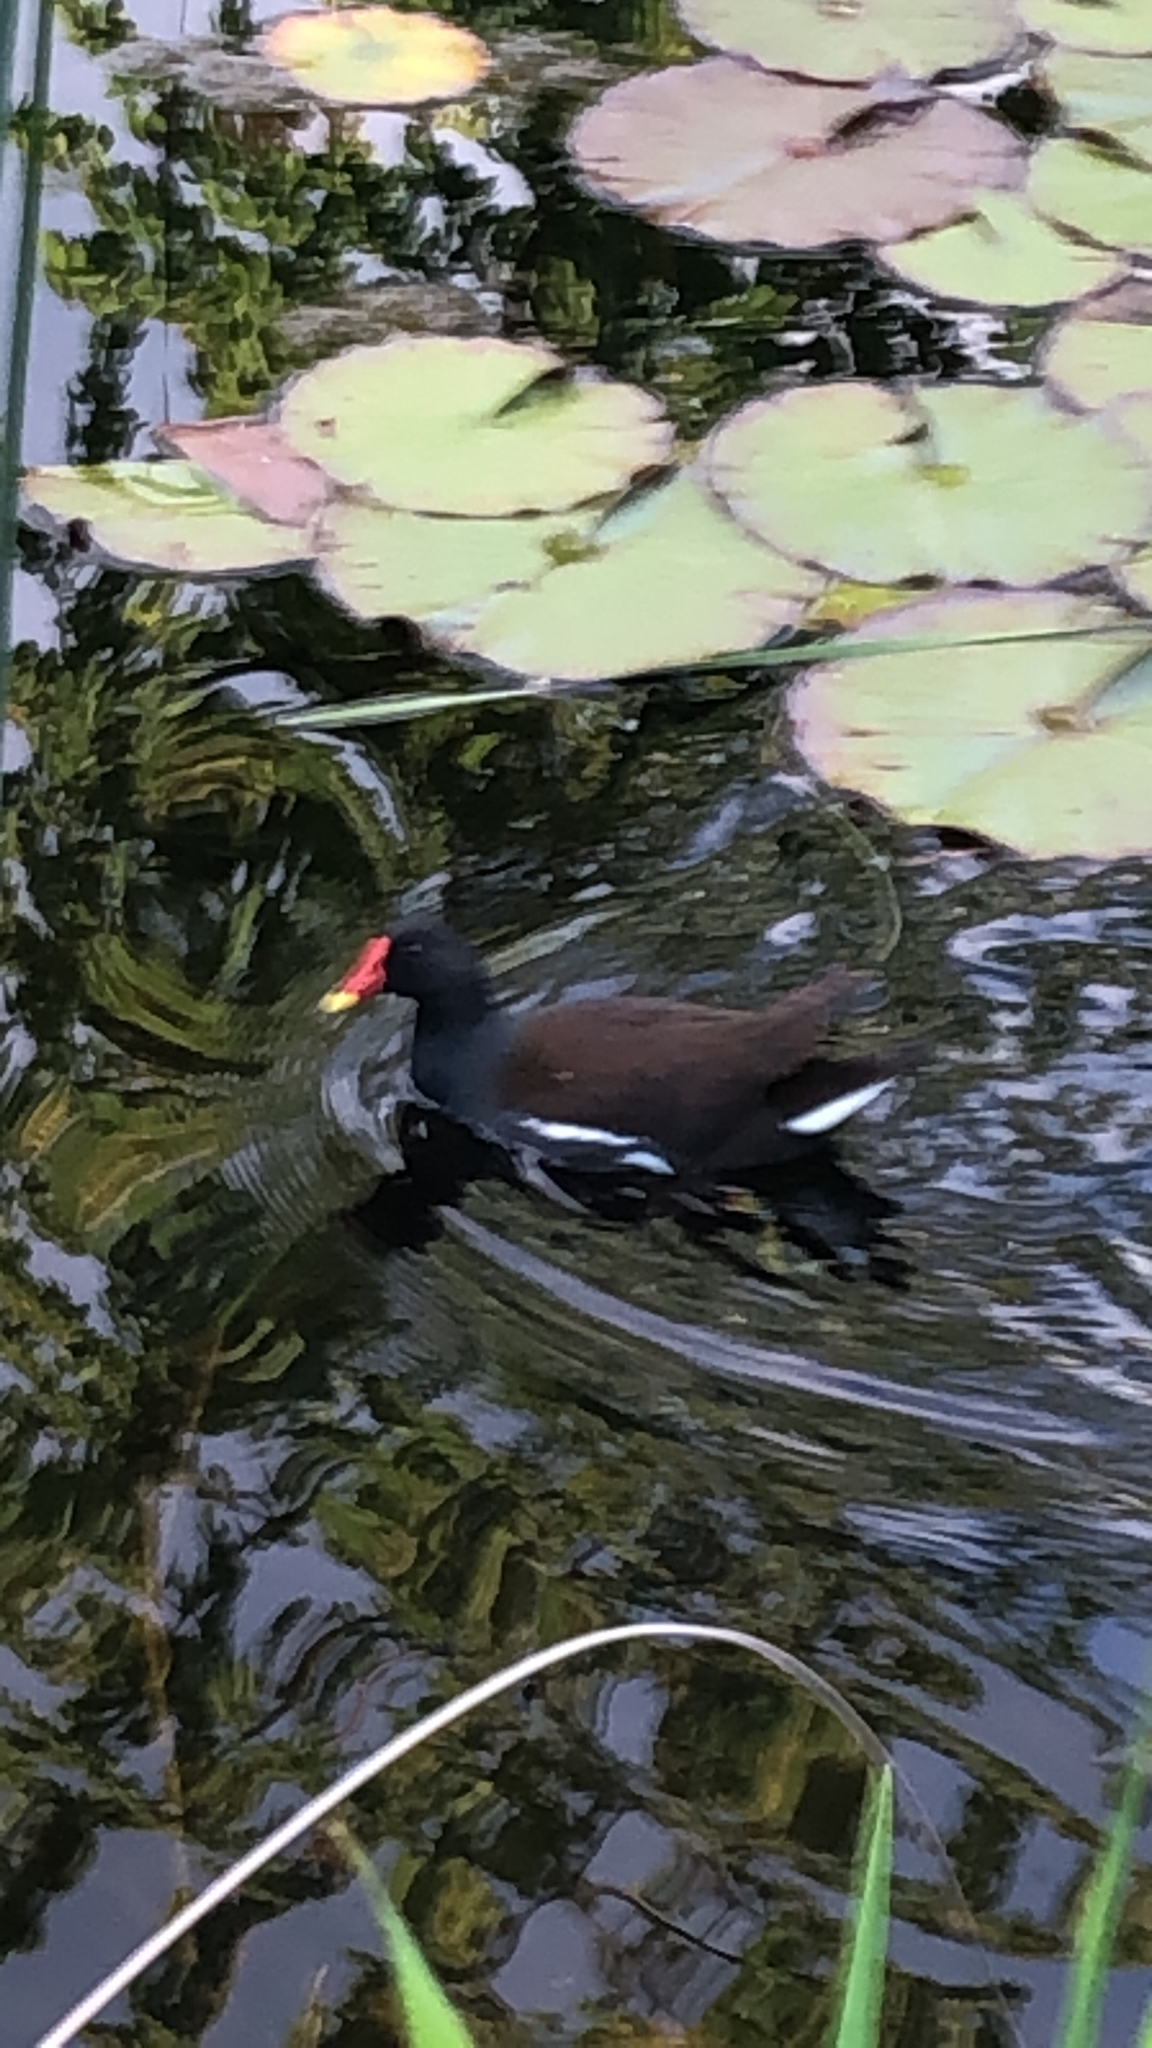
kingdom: Animalia
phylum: Chordata
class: Aves
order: Gruiformes
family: Rallidae
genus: Gallinula
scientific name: Gallinula chloropus
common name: Common moorhen
